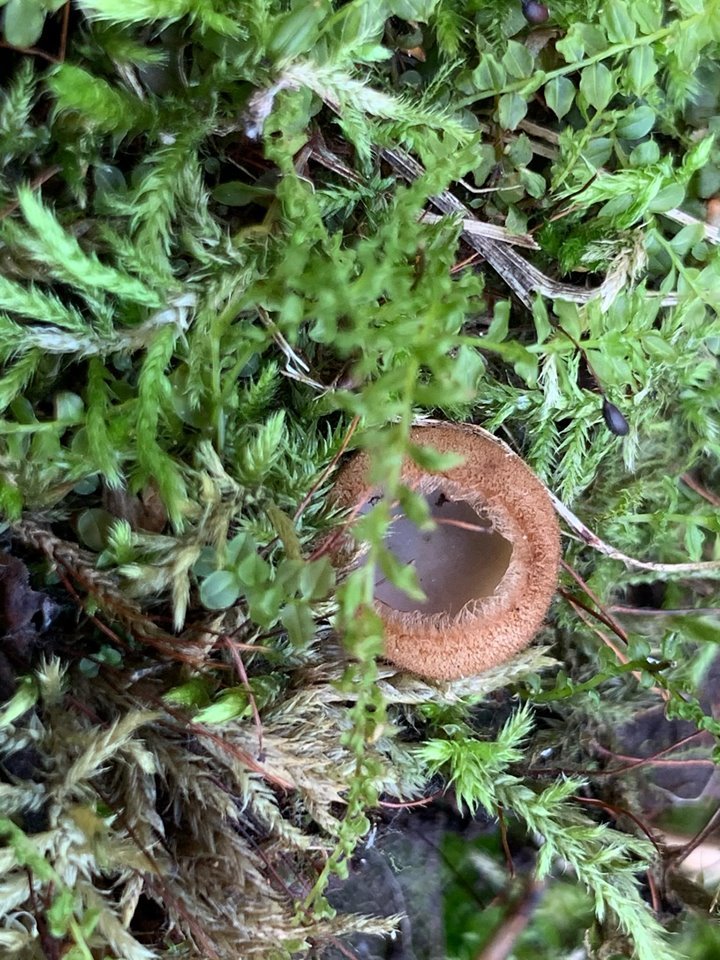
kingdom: Fungi
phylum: Ascomycota
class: Pezizomycetes
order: Pezizales
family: Pyronemataceae
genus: Humaria
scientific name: Humaria hemisphaerica
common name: Glazed cup
